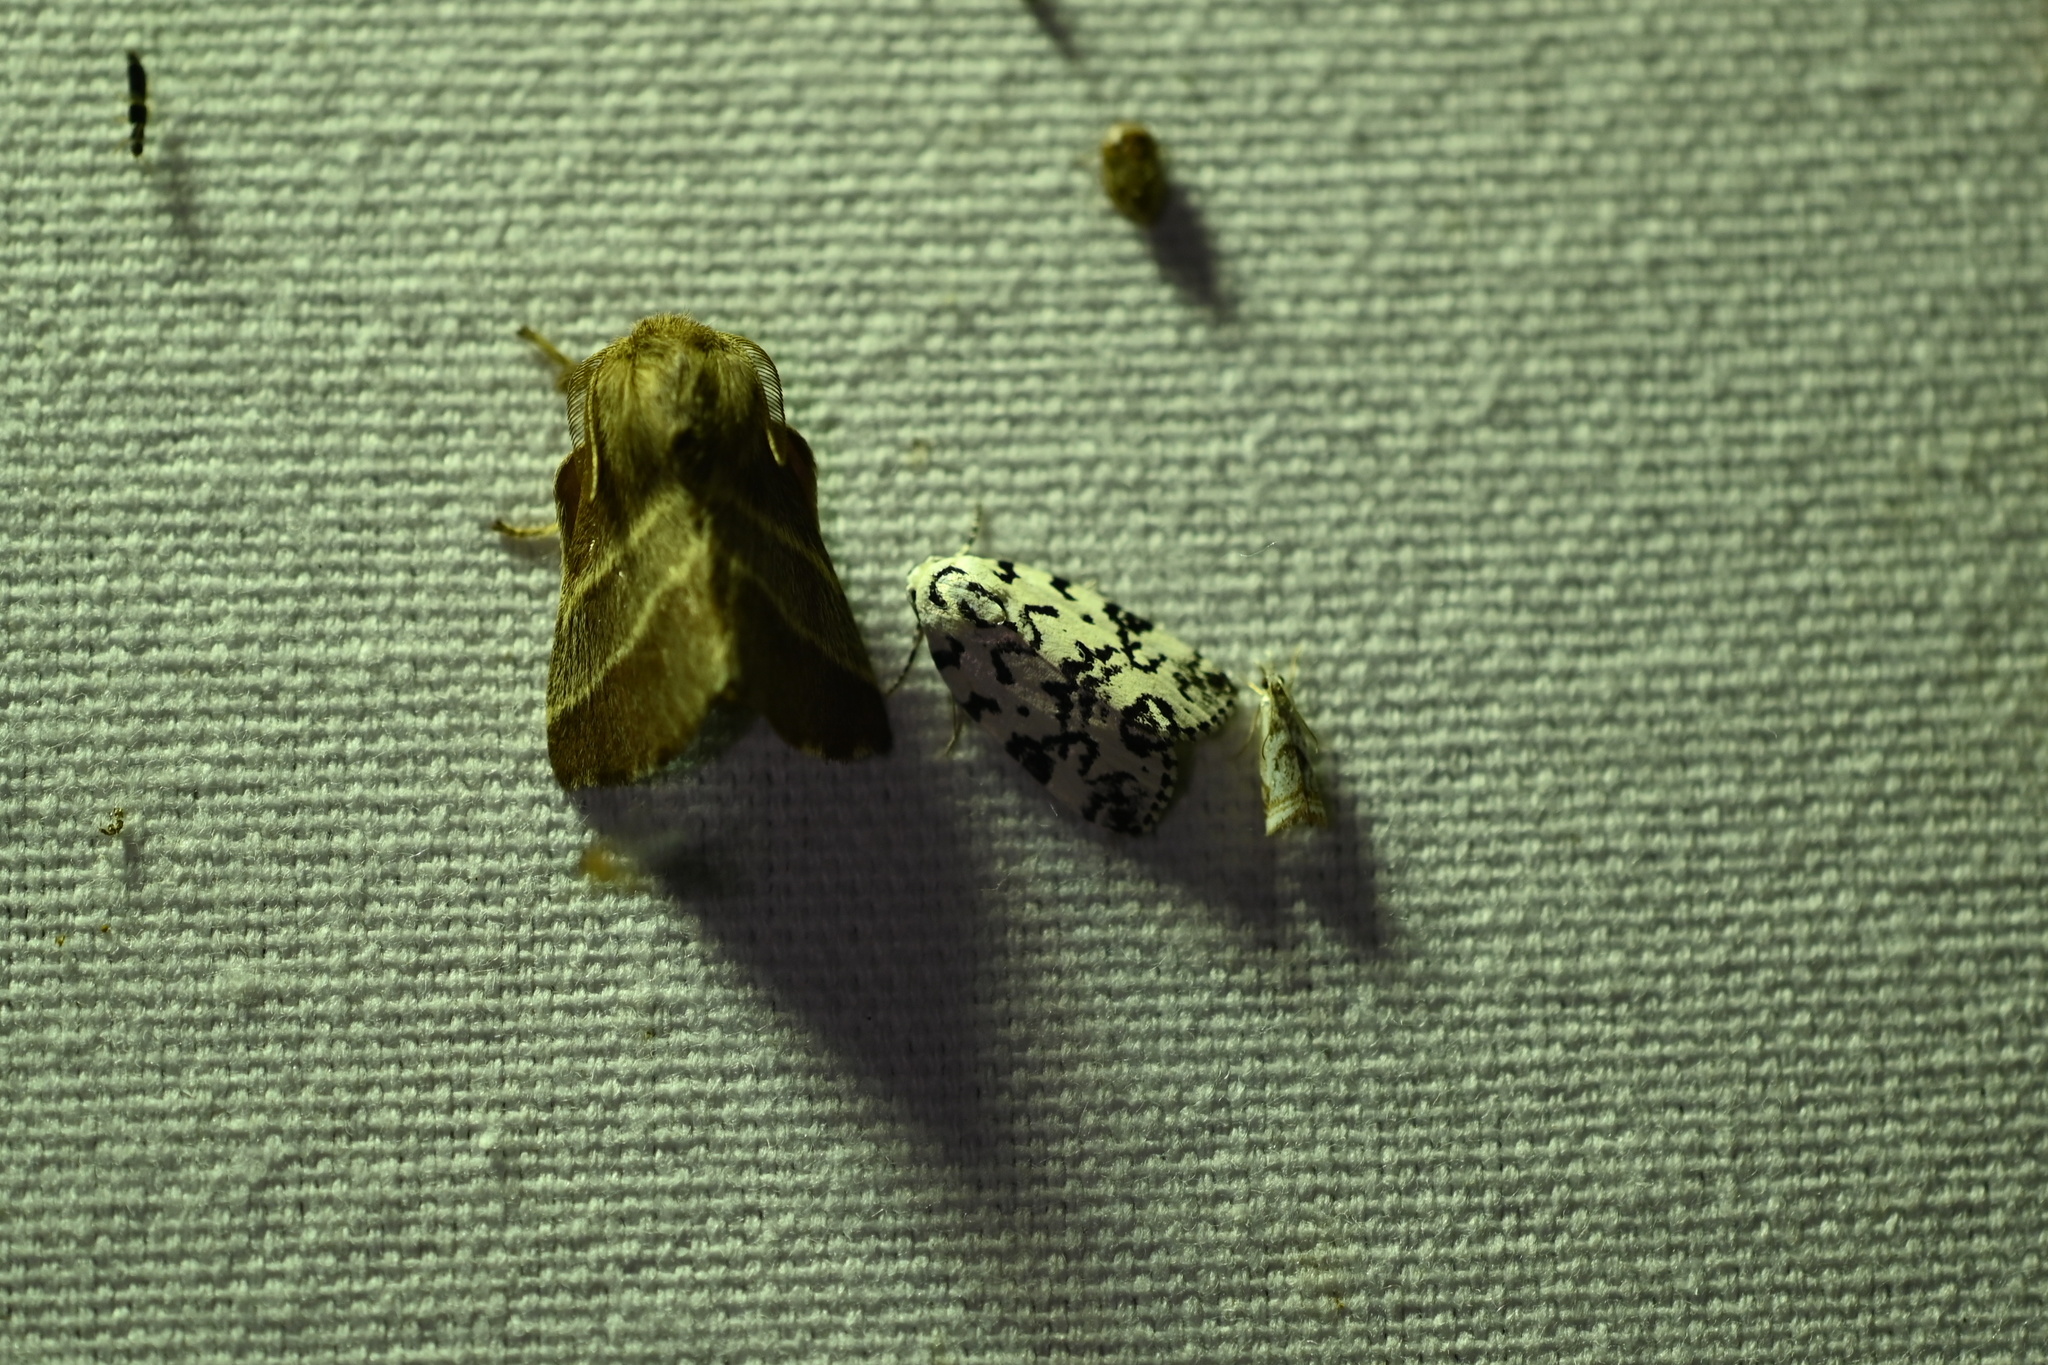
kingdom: Animalia
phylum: Arthropoda
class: Insecta
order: Lepidoptera
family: Lasiocampidae
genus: Malacosoma
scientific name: Malacosoma americana
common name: Eastern tent caterpillar moth
